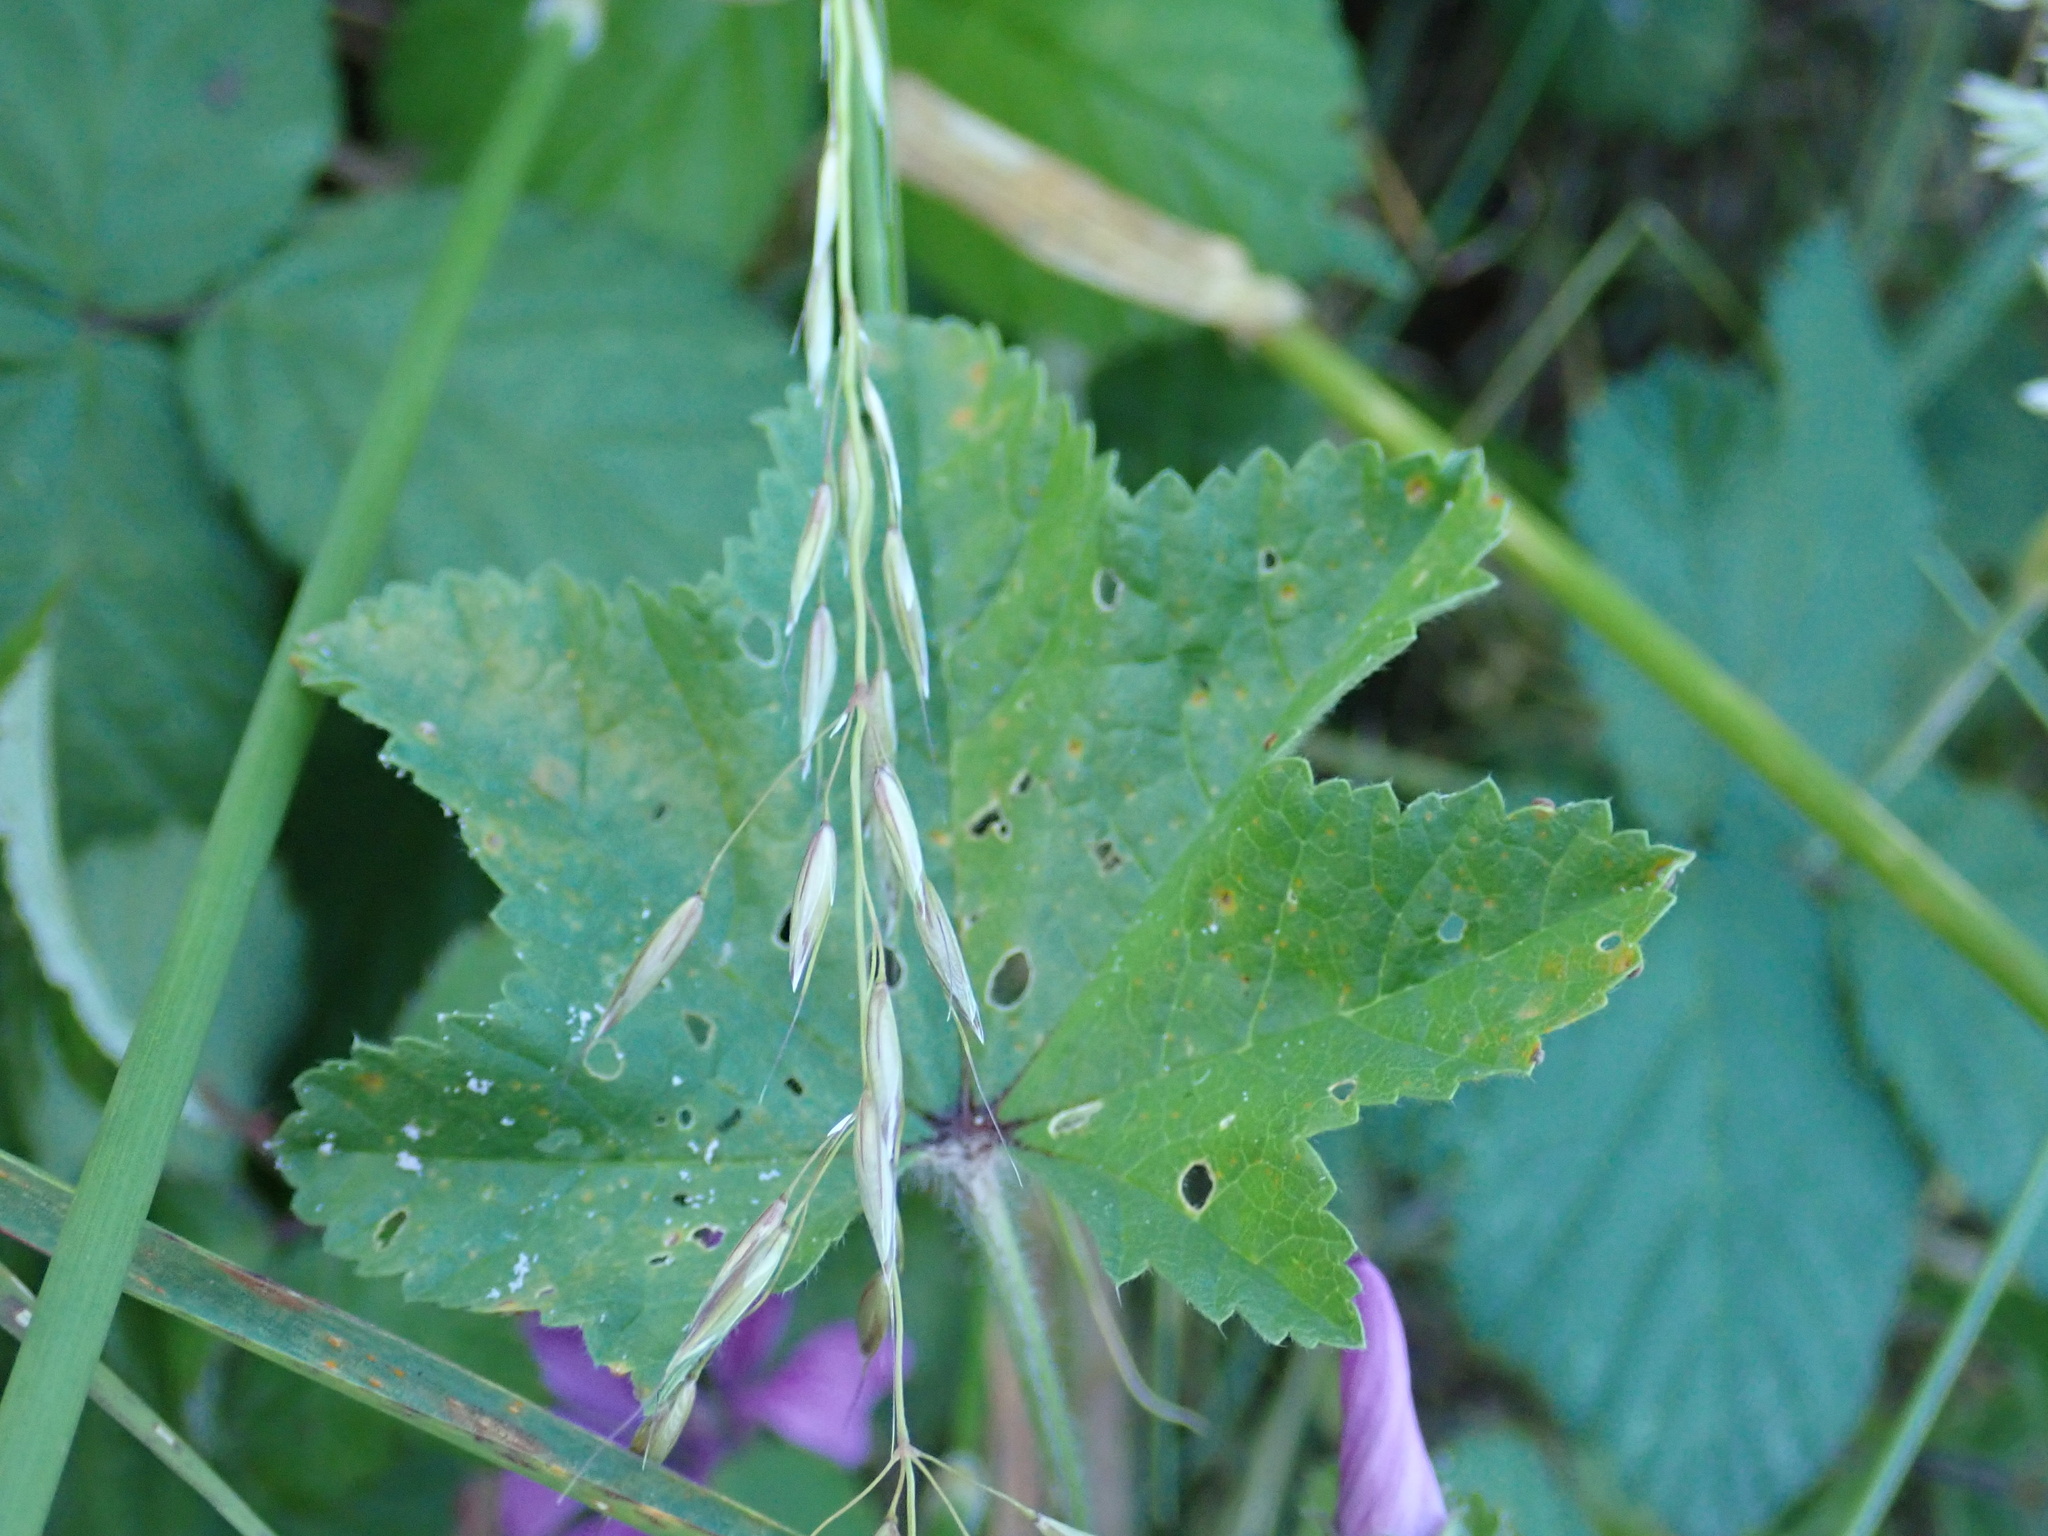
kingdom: Plantae
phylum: Tracheophyta
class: Magnoliopsida
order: Malvales
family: Malvaceae
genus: Malva
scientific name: Malva sylvestris
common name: Common mallow
